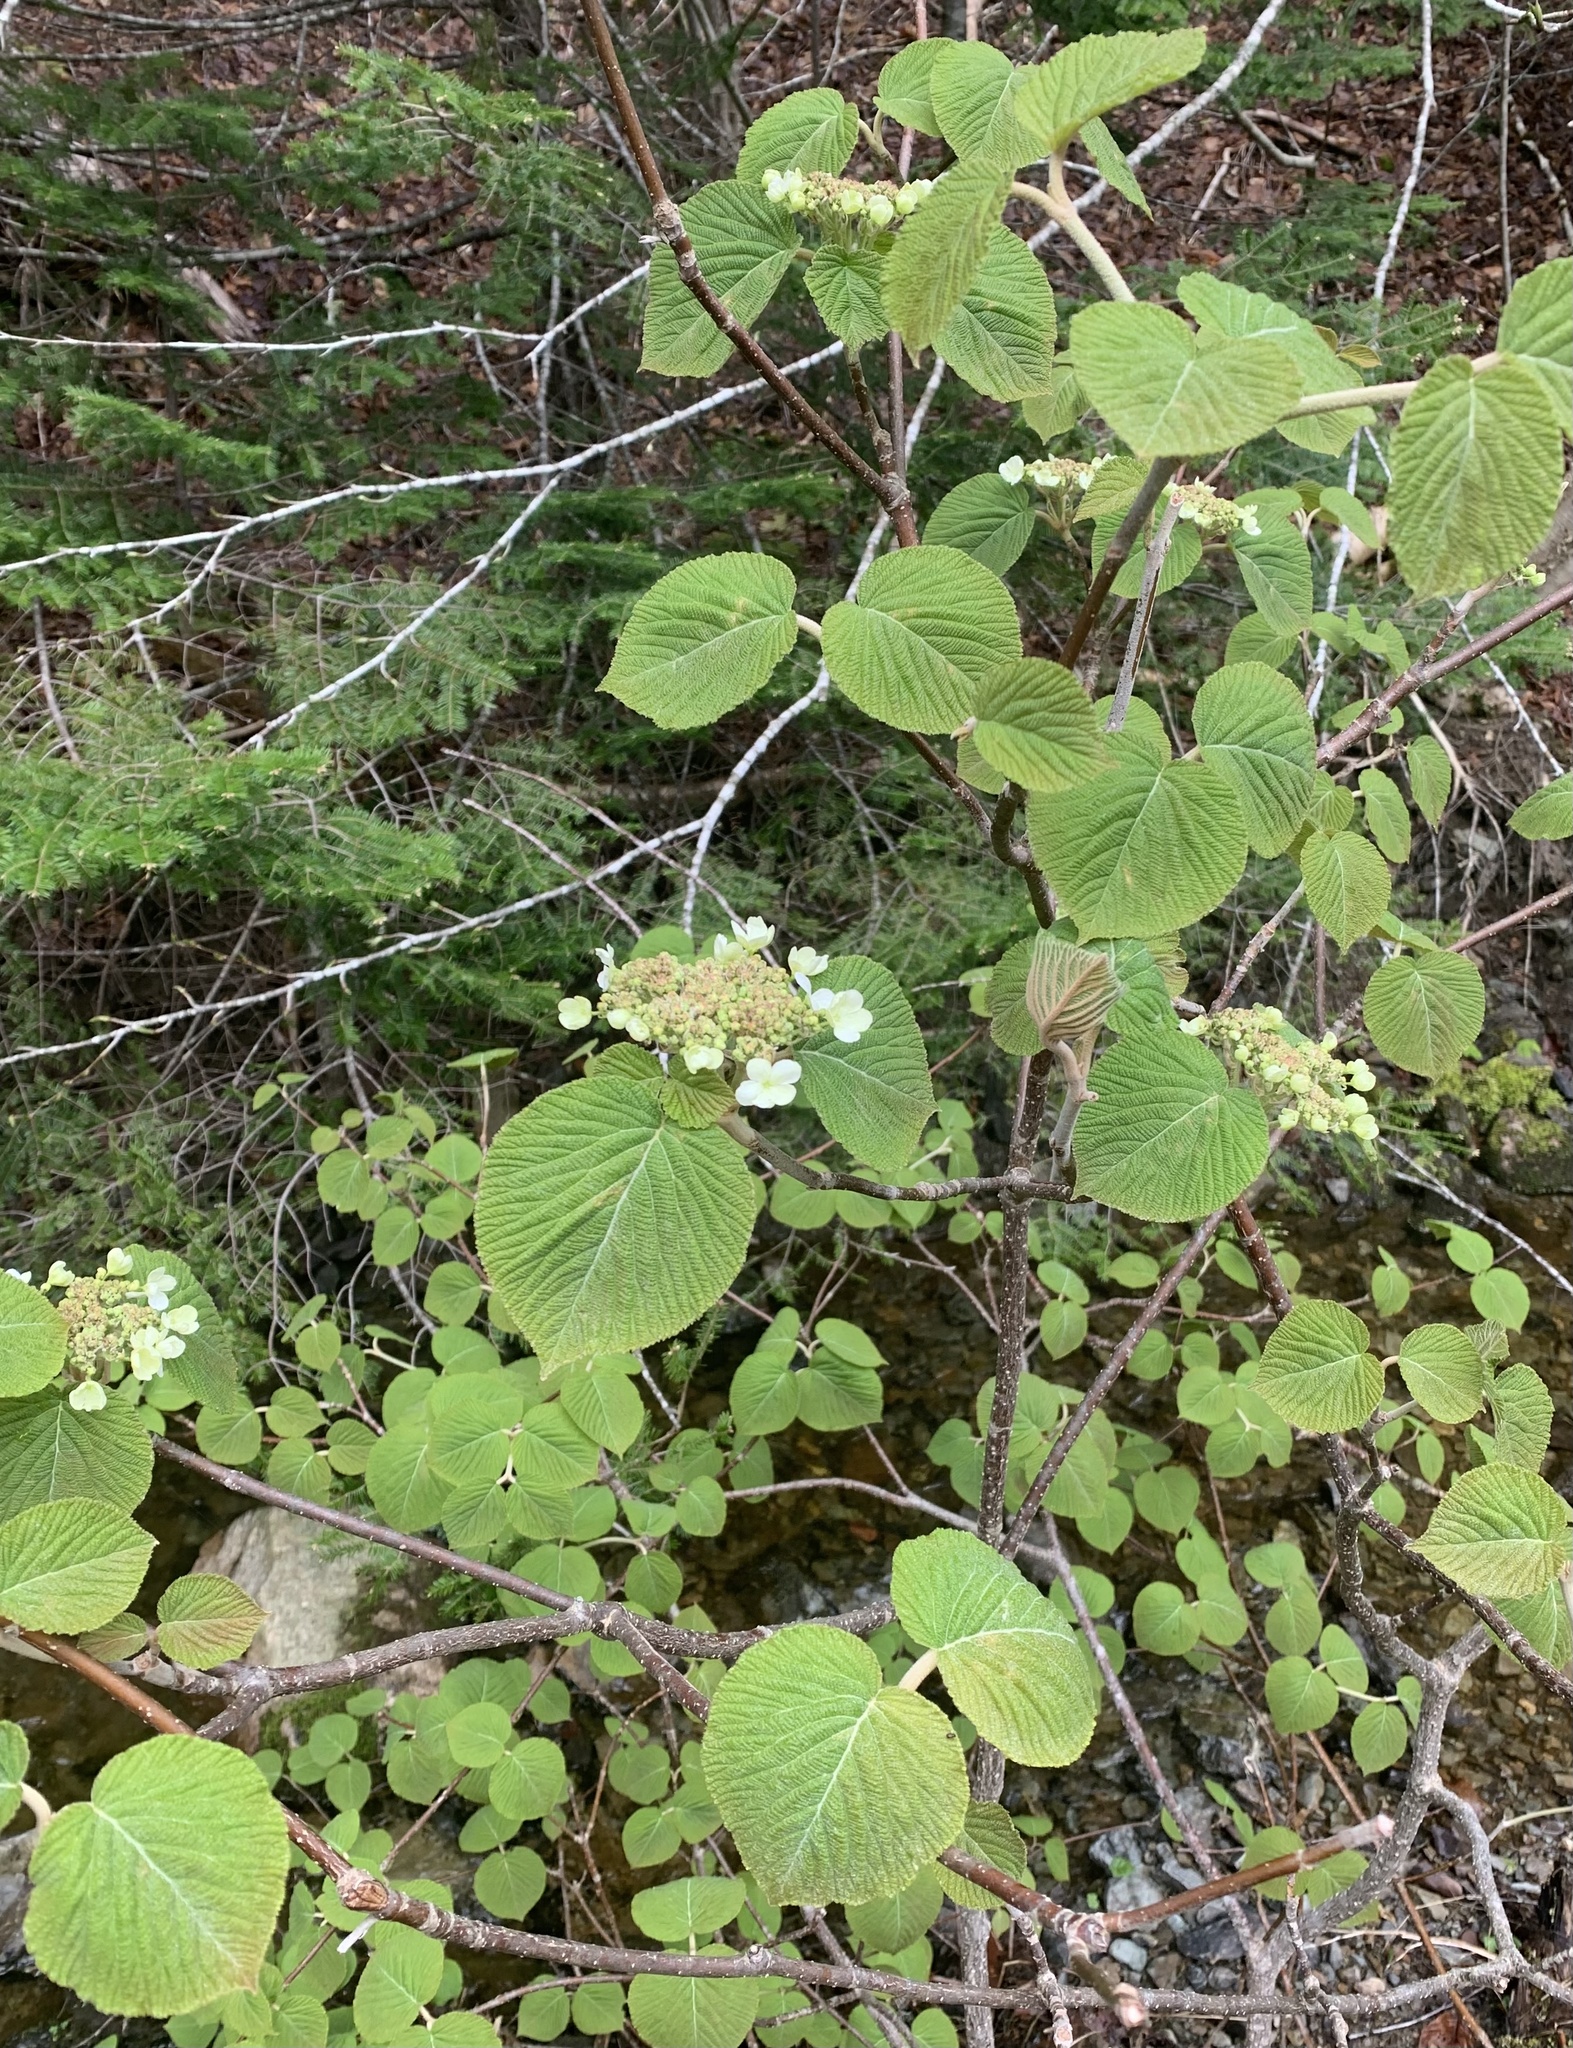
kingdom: Plantae
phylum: Tracheophyta
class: Magnoliopsida
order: Dipsacales
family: Viburnaceae
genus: Viburnum
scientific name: Viburnum lantanoides
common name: Hobblebush
